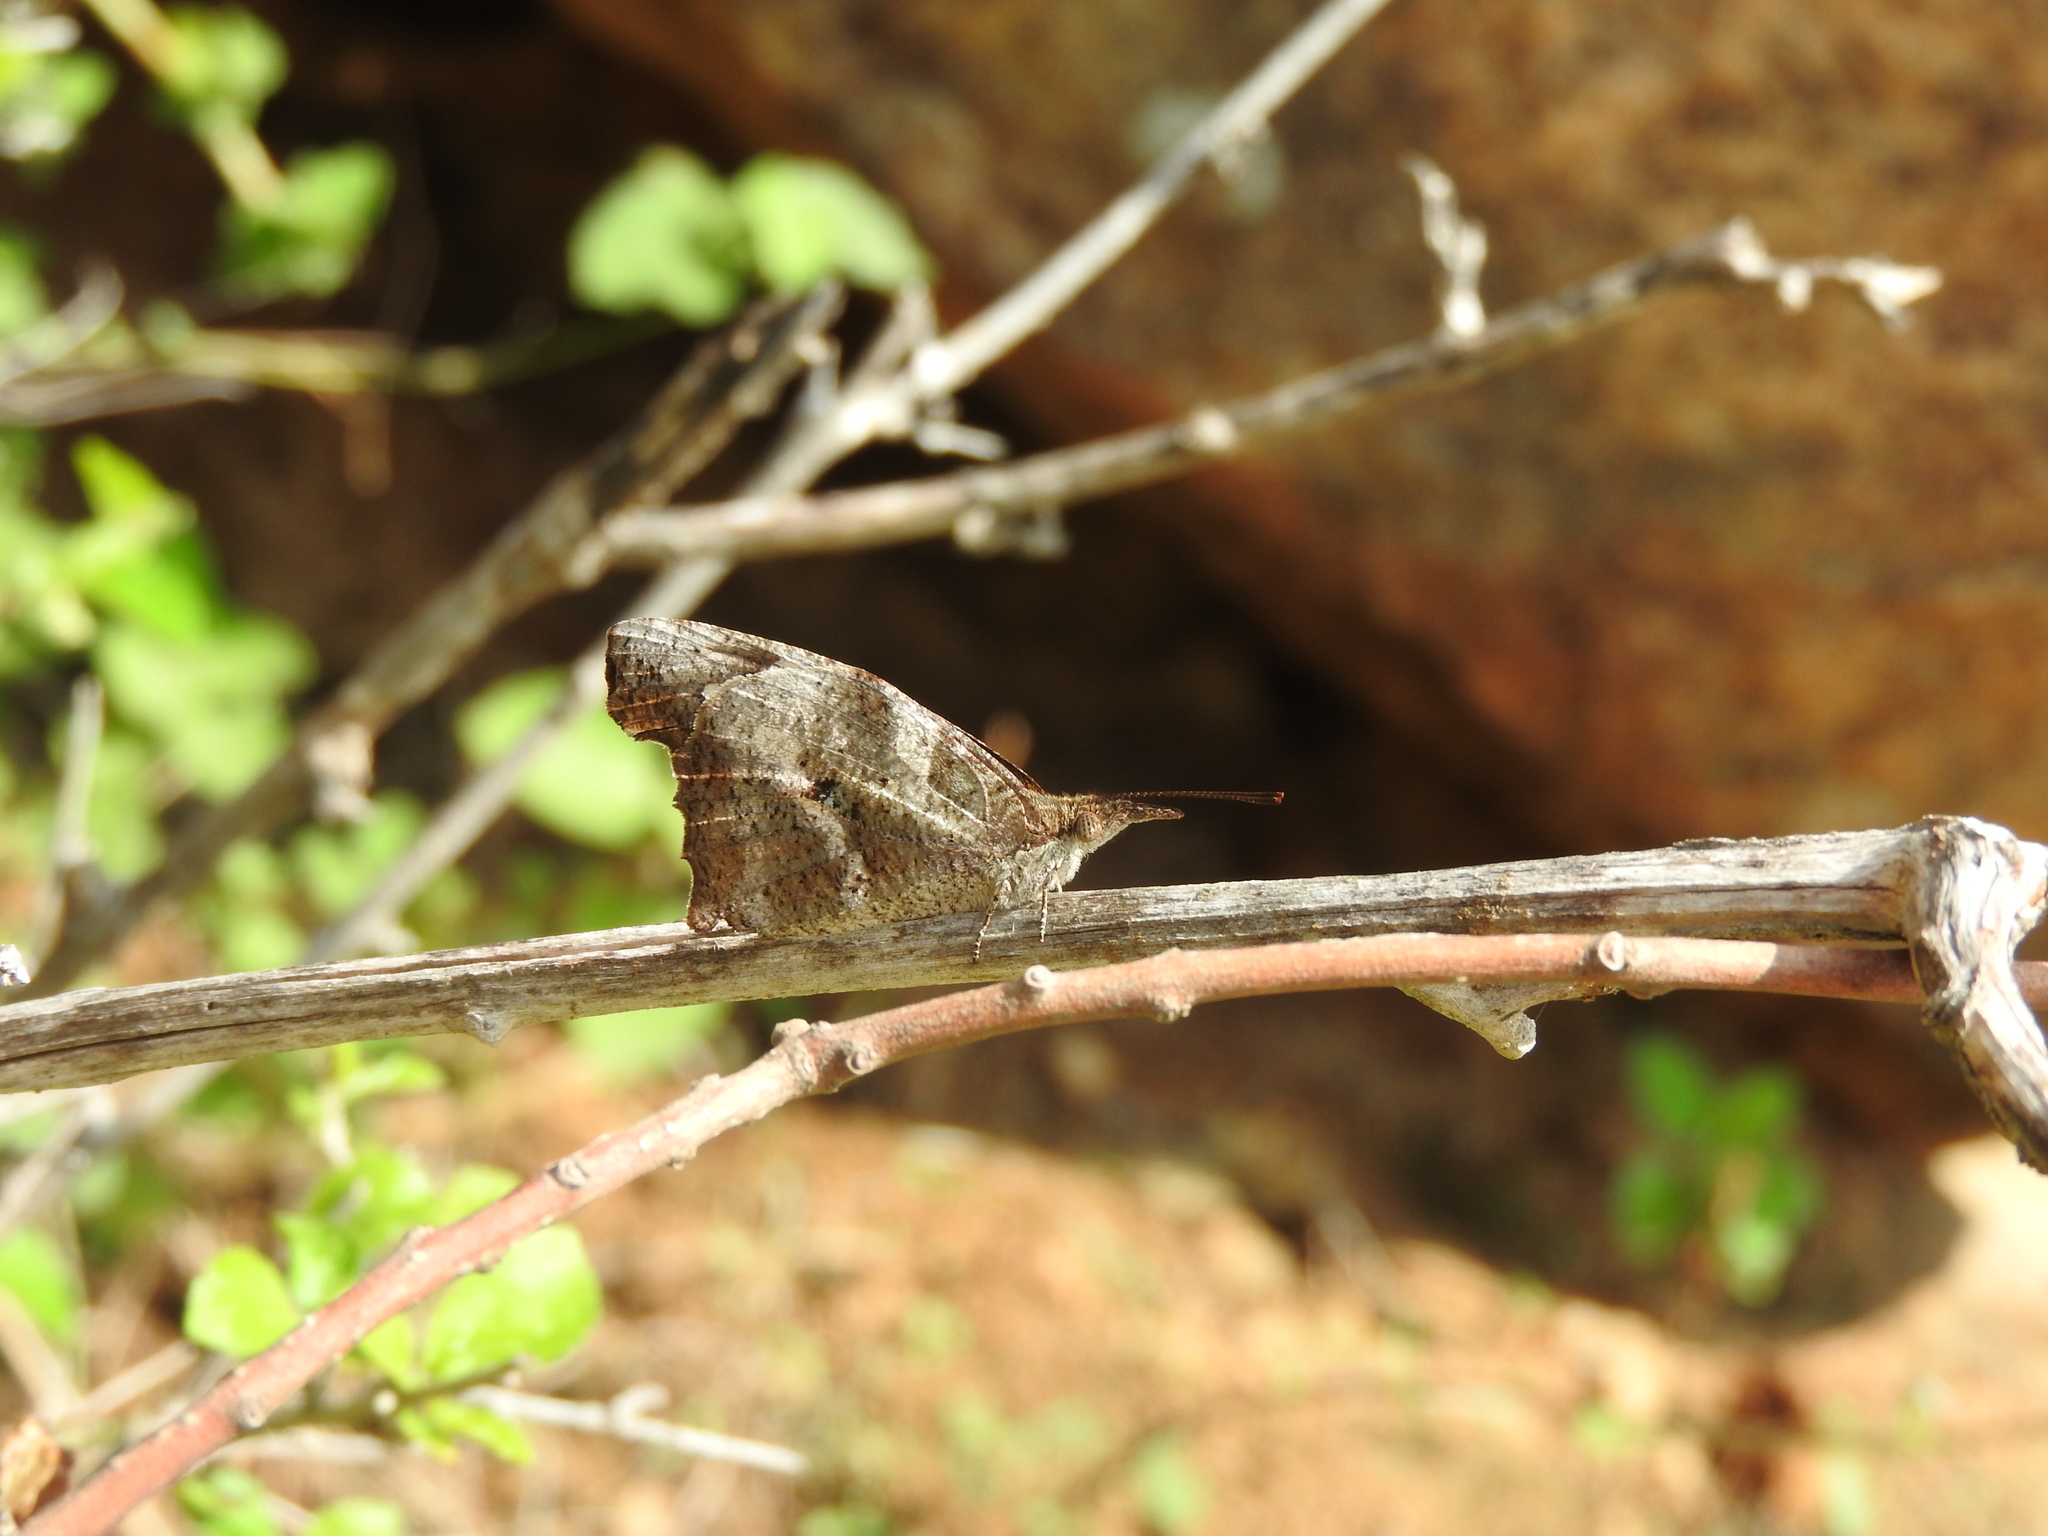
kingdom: Animalia
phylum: Arthropoda
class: Insecta
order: Lepidoptera
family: Nymphalidae
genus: Libythea
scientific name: Libythea laius
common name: African snout
